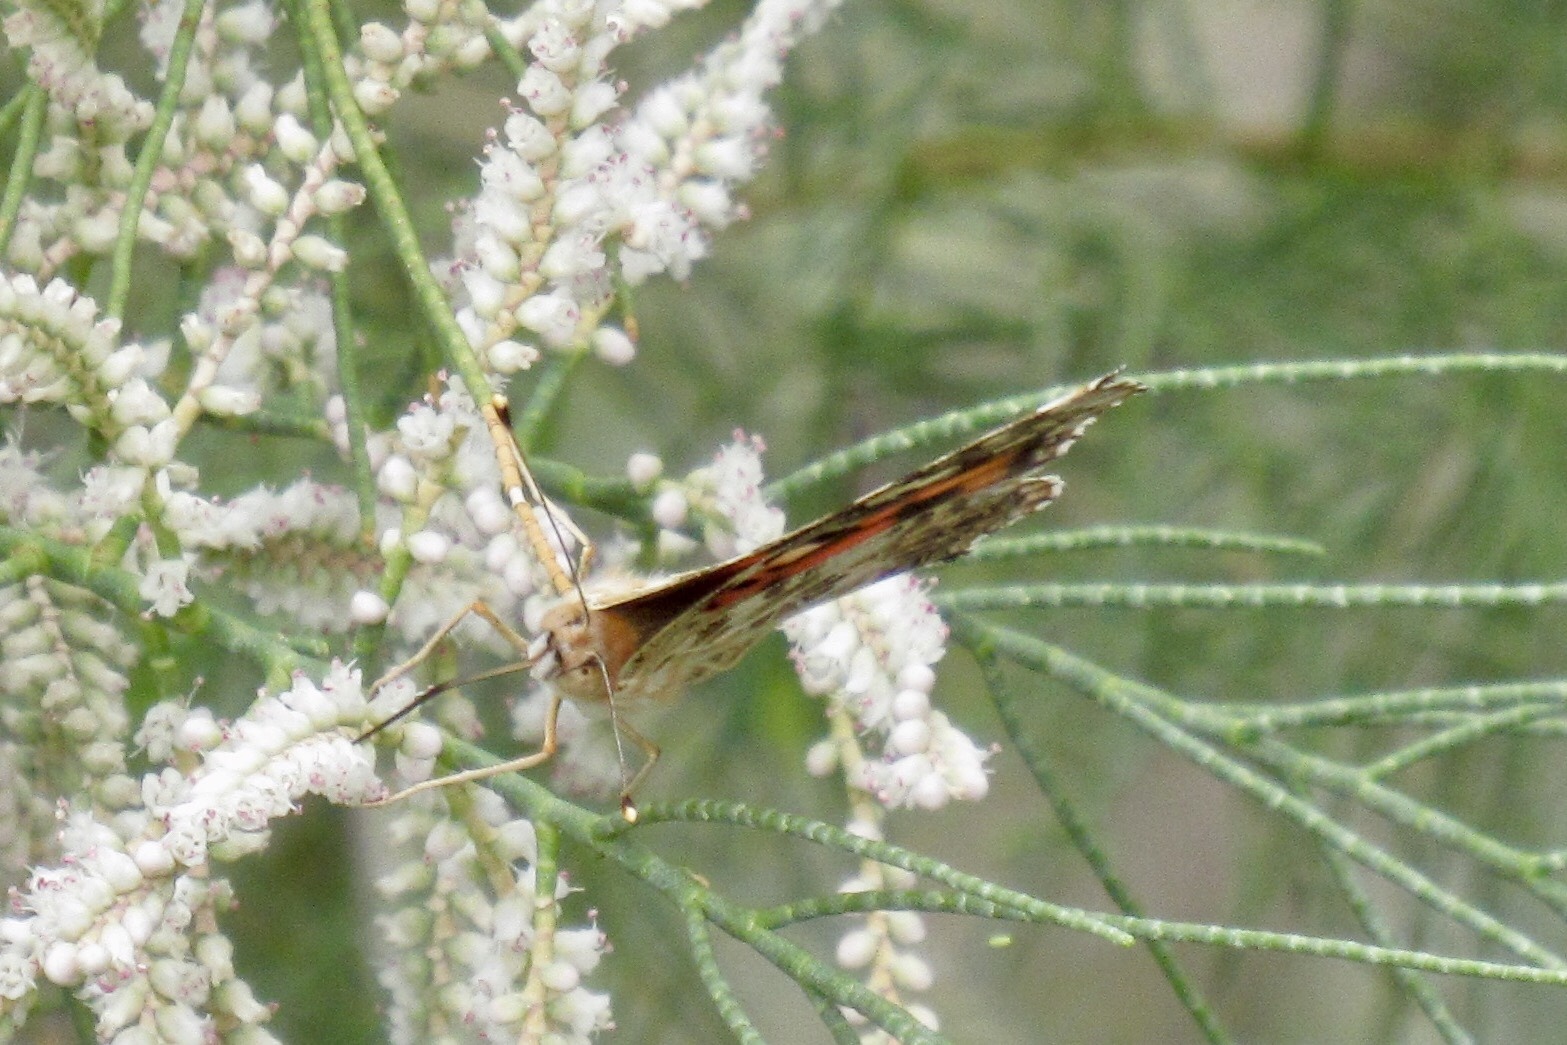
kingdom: Animalia
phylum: Arthropoda
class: Insecta
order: Lepidoptera
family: Nymphalidae
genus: Vanessa
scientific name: Vanessa cardui
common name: Painted lady
